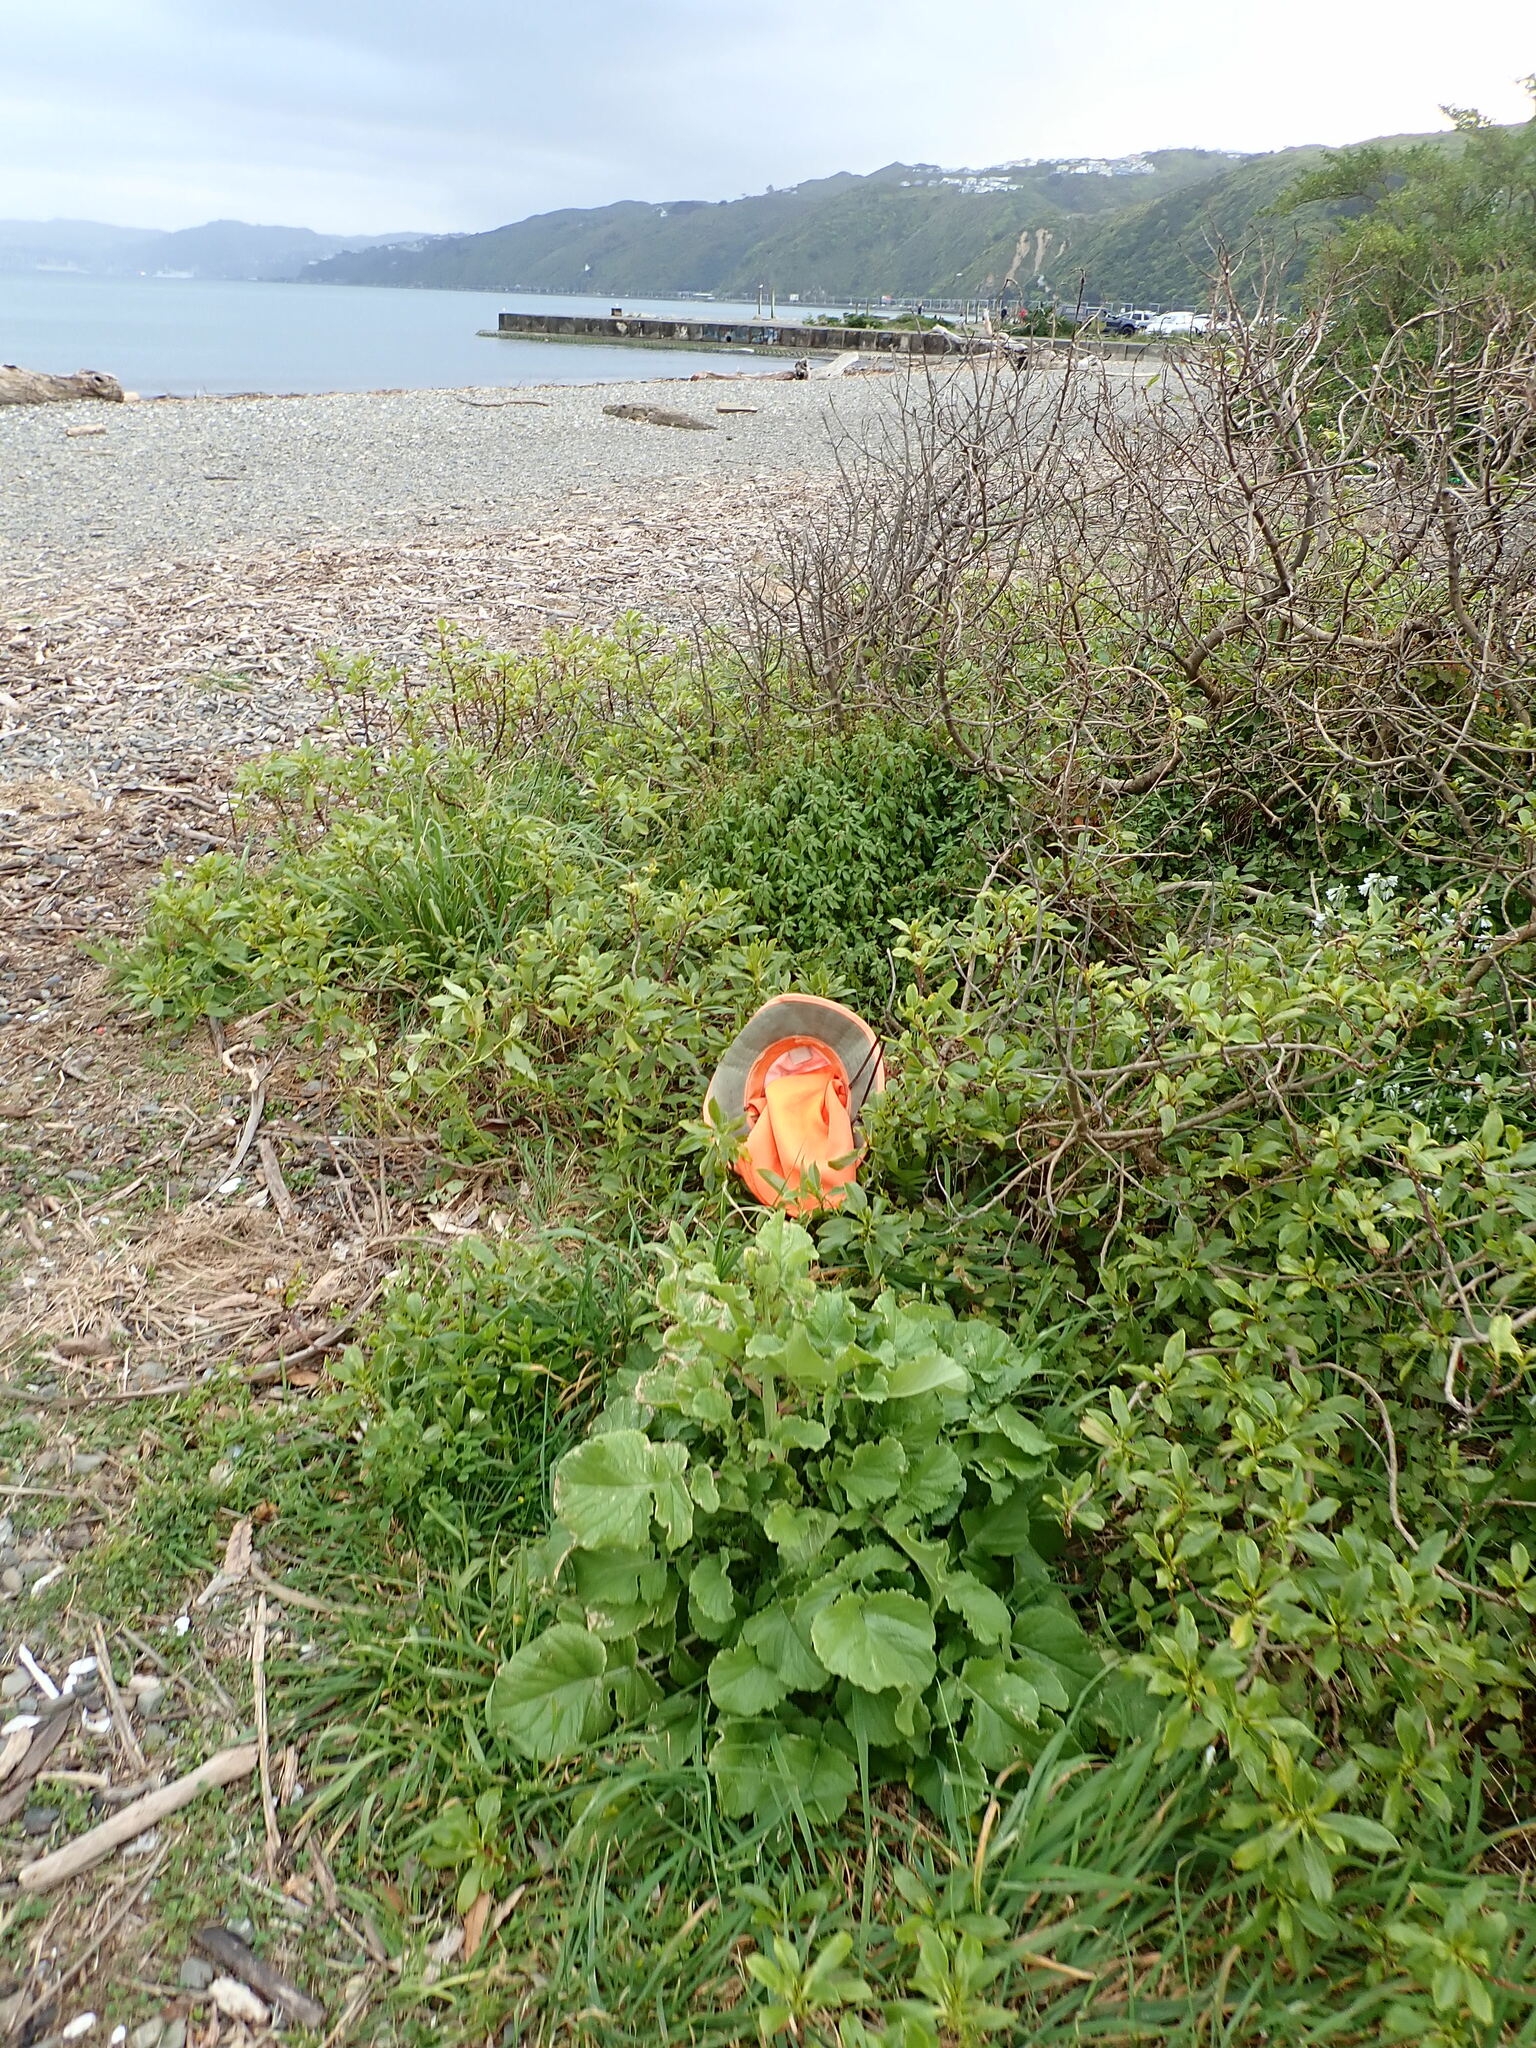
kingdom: Plantae
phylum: Tracheophyta
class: Magnoliopsida
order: Caryophyllales
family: Polygonaceae
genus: Rumex
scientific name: Rumex sagittatus
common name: Climbing dock
